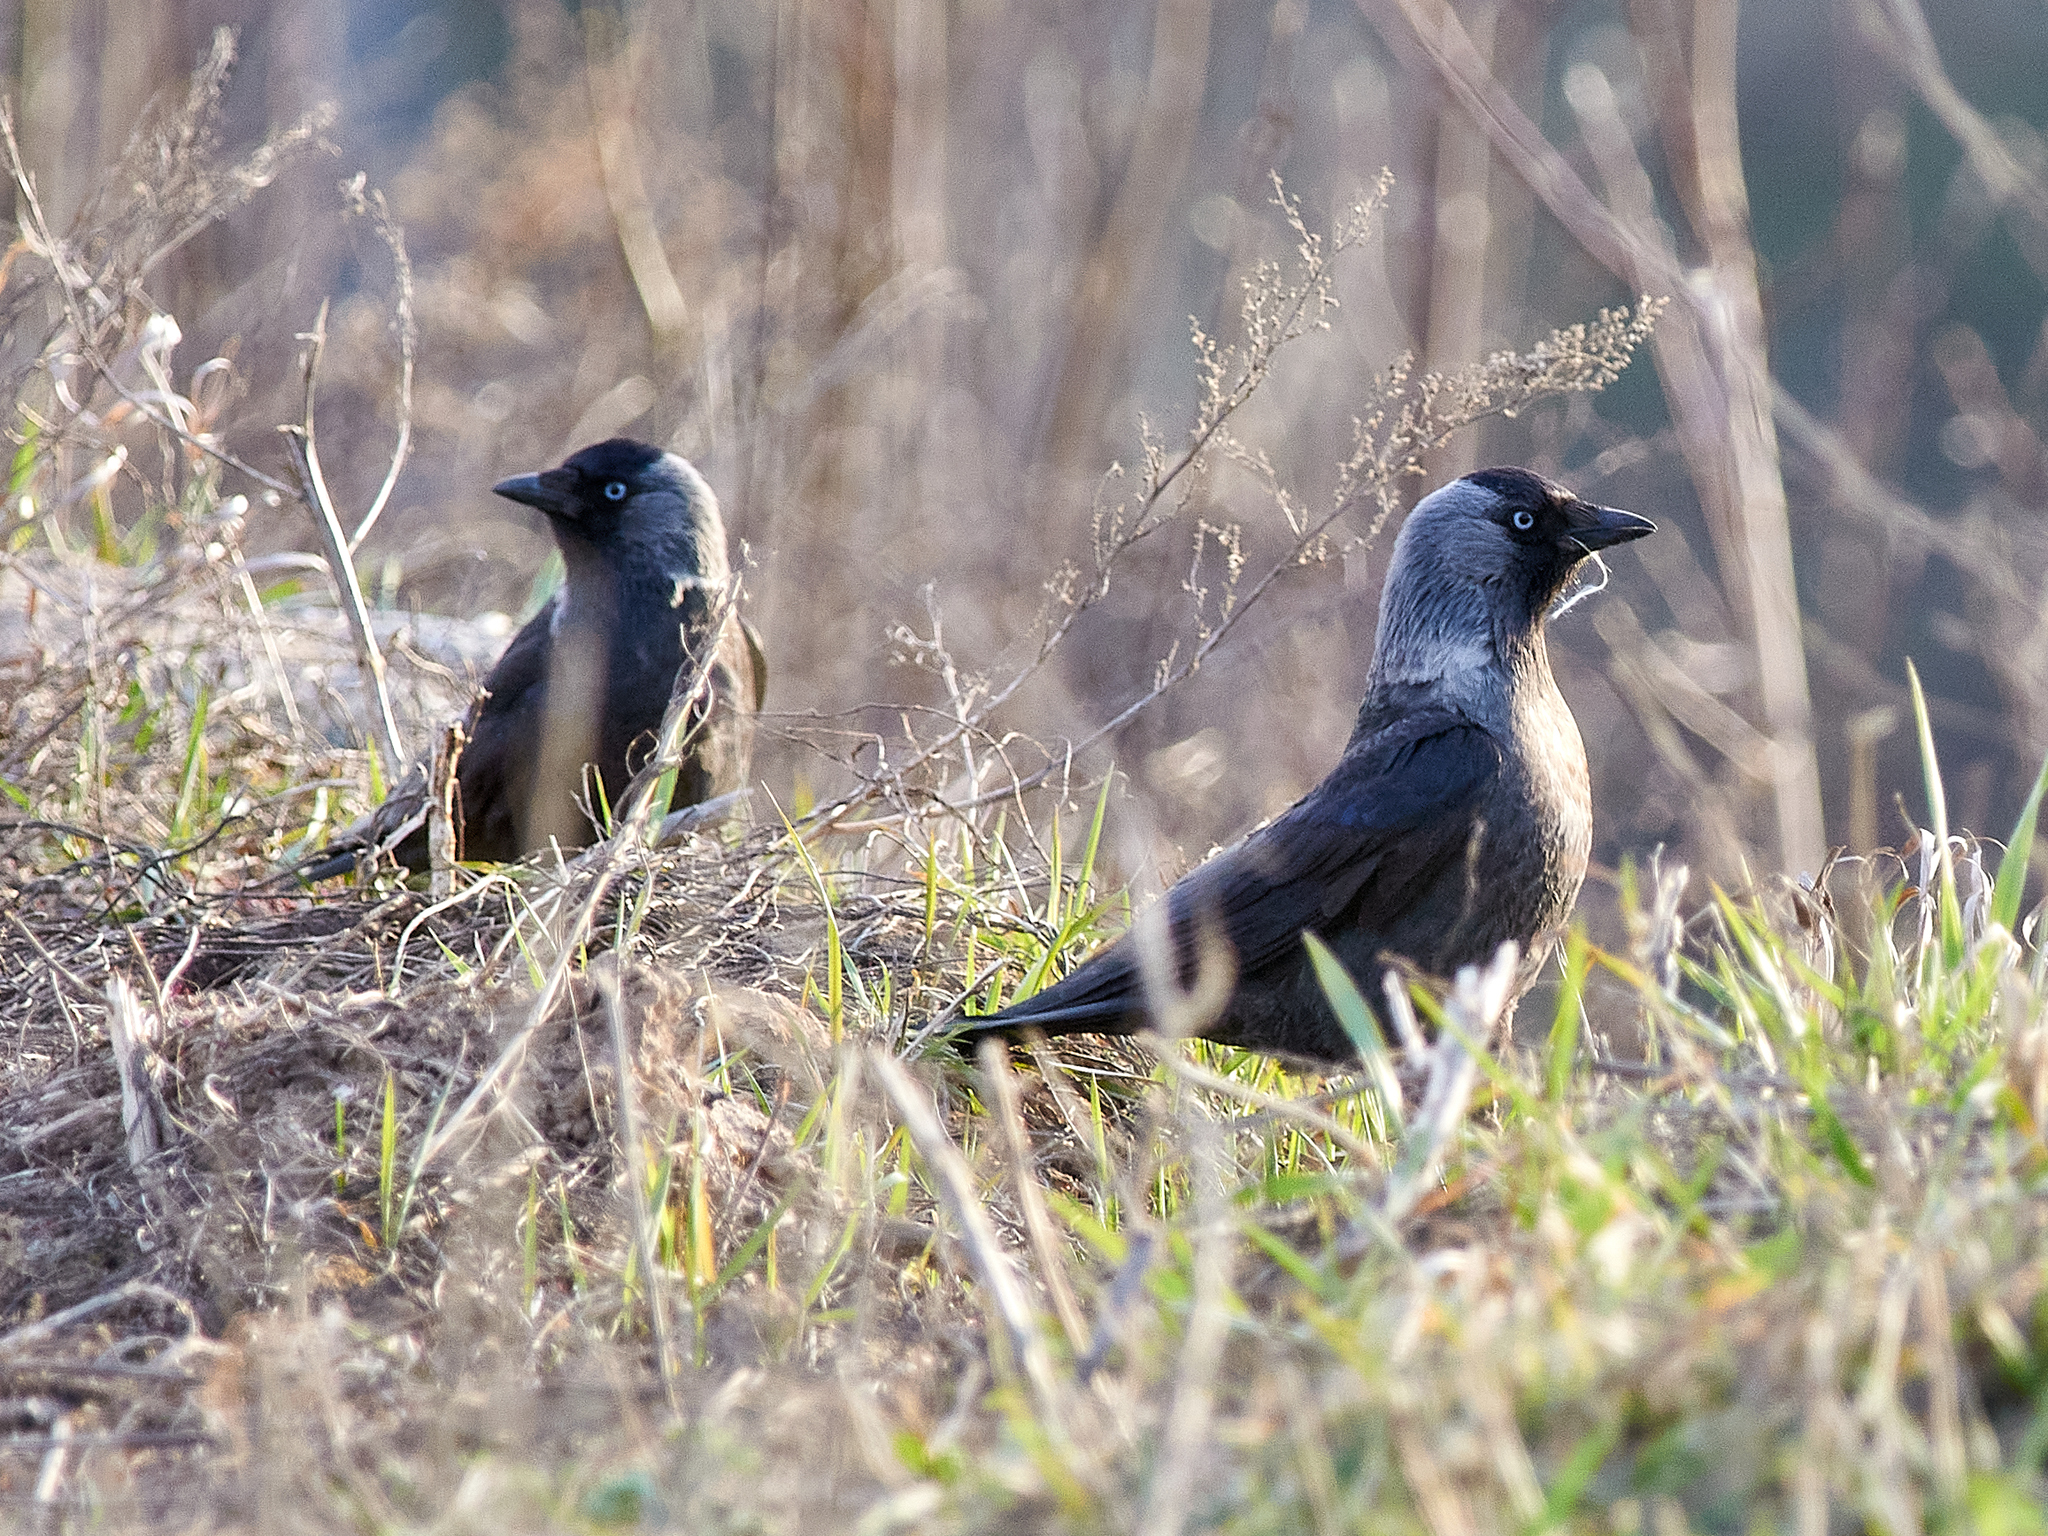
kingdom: Animalia
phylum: Chordata
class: Aves
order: Passeriformes
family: Corvidae
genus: Coloeus
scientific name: Coloeus monedula
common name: Western jackdaw
